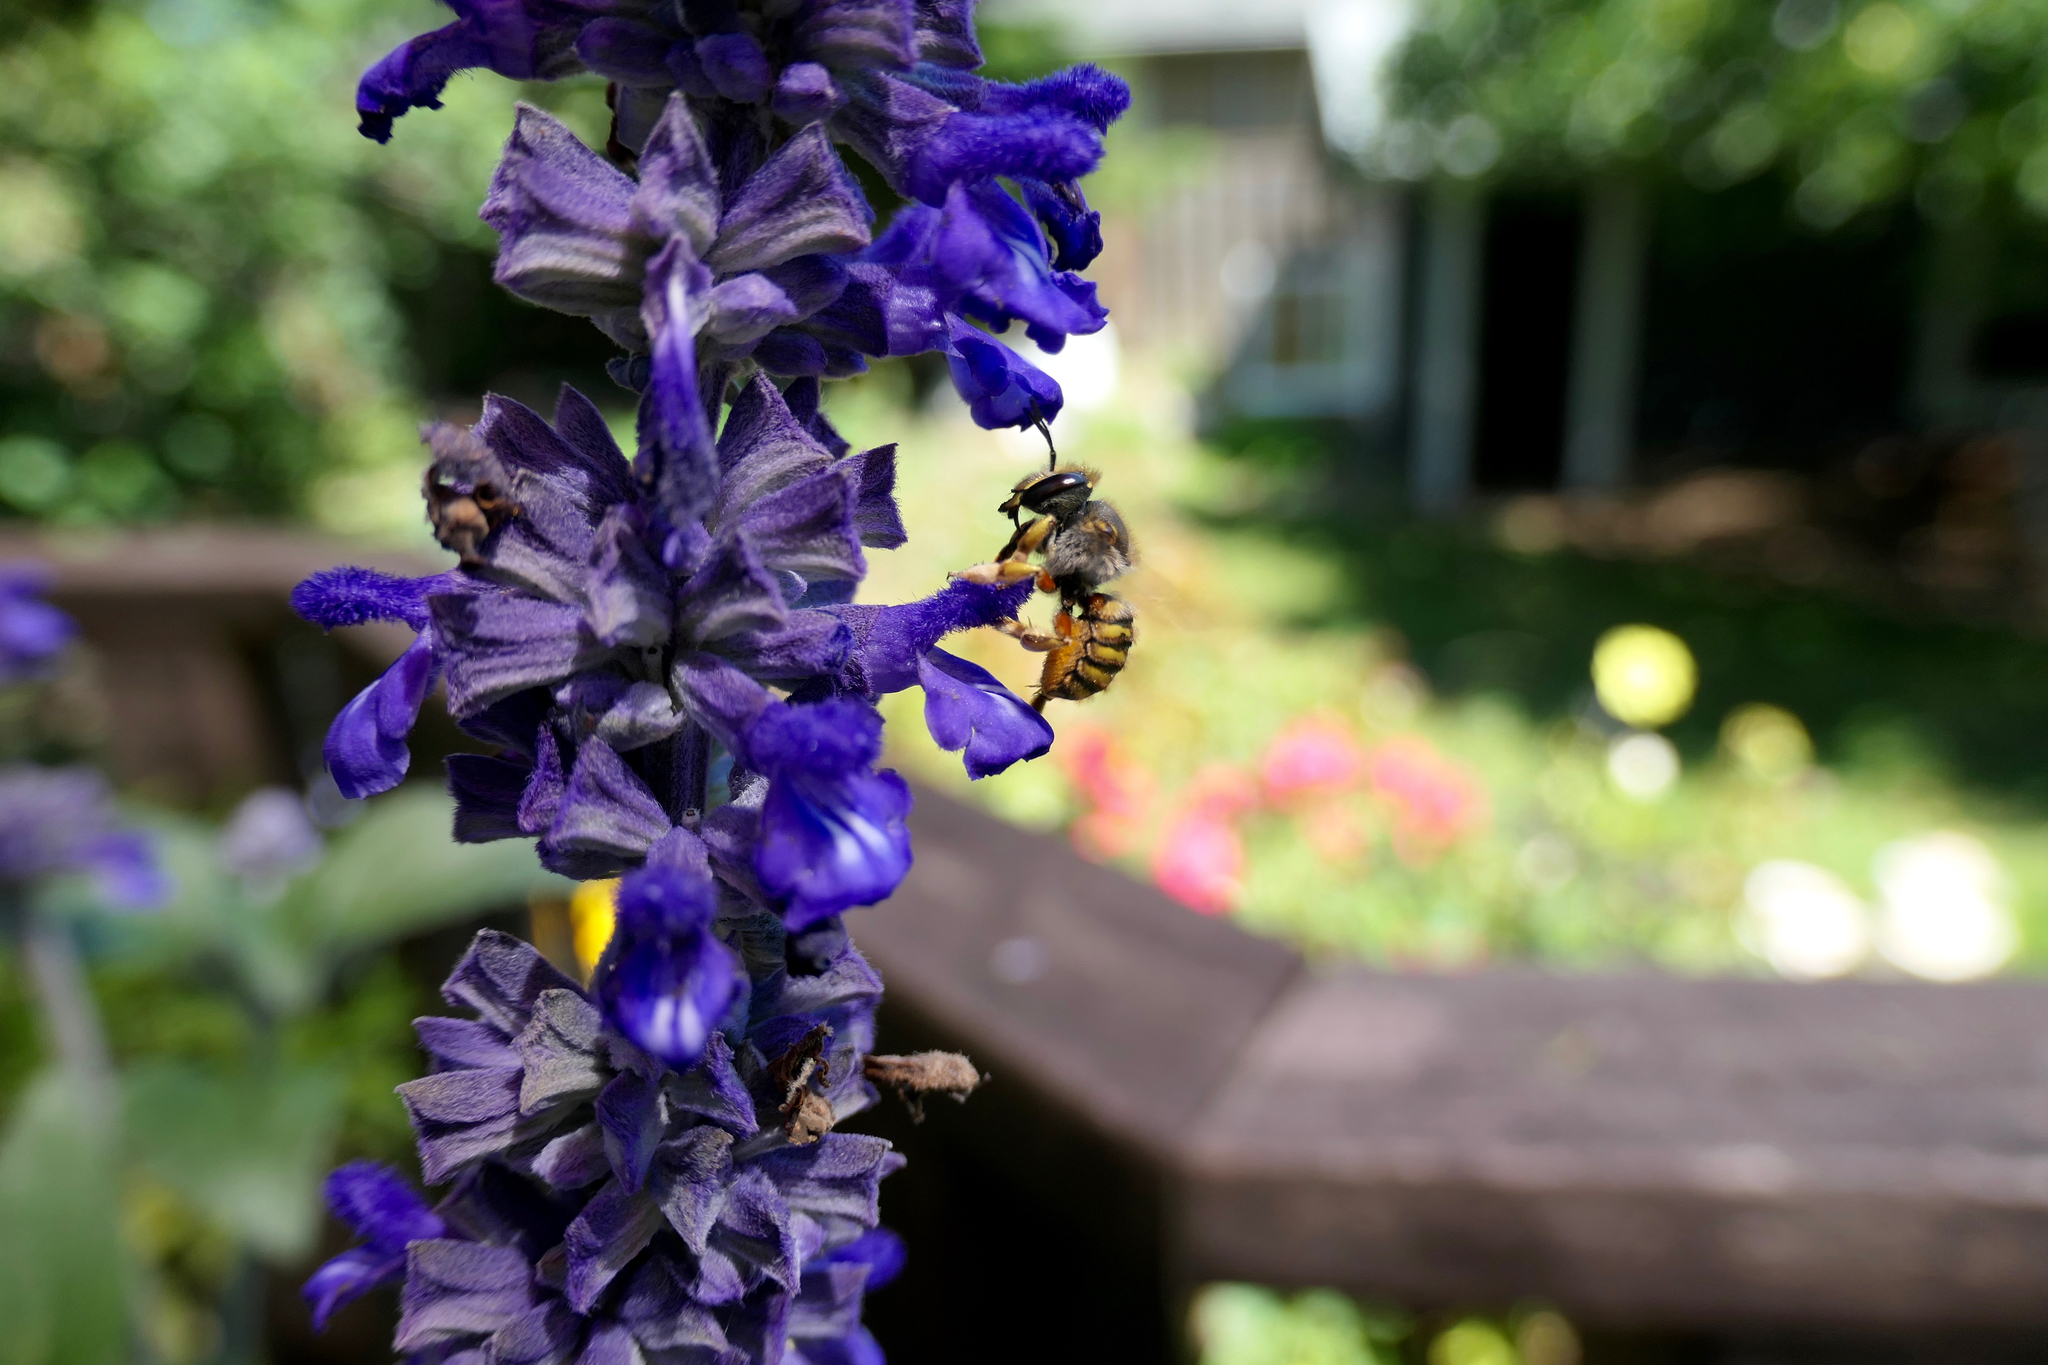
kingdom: Animalia
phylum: Arthropoda
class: Insecta
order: Hymenoptera
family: Megachilidae
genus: Anthidium
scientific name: Anthidium manicatum
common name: Wool carder bee
